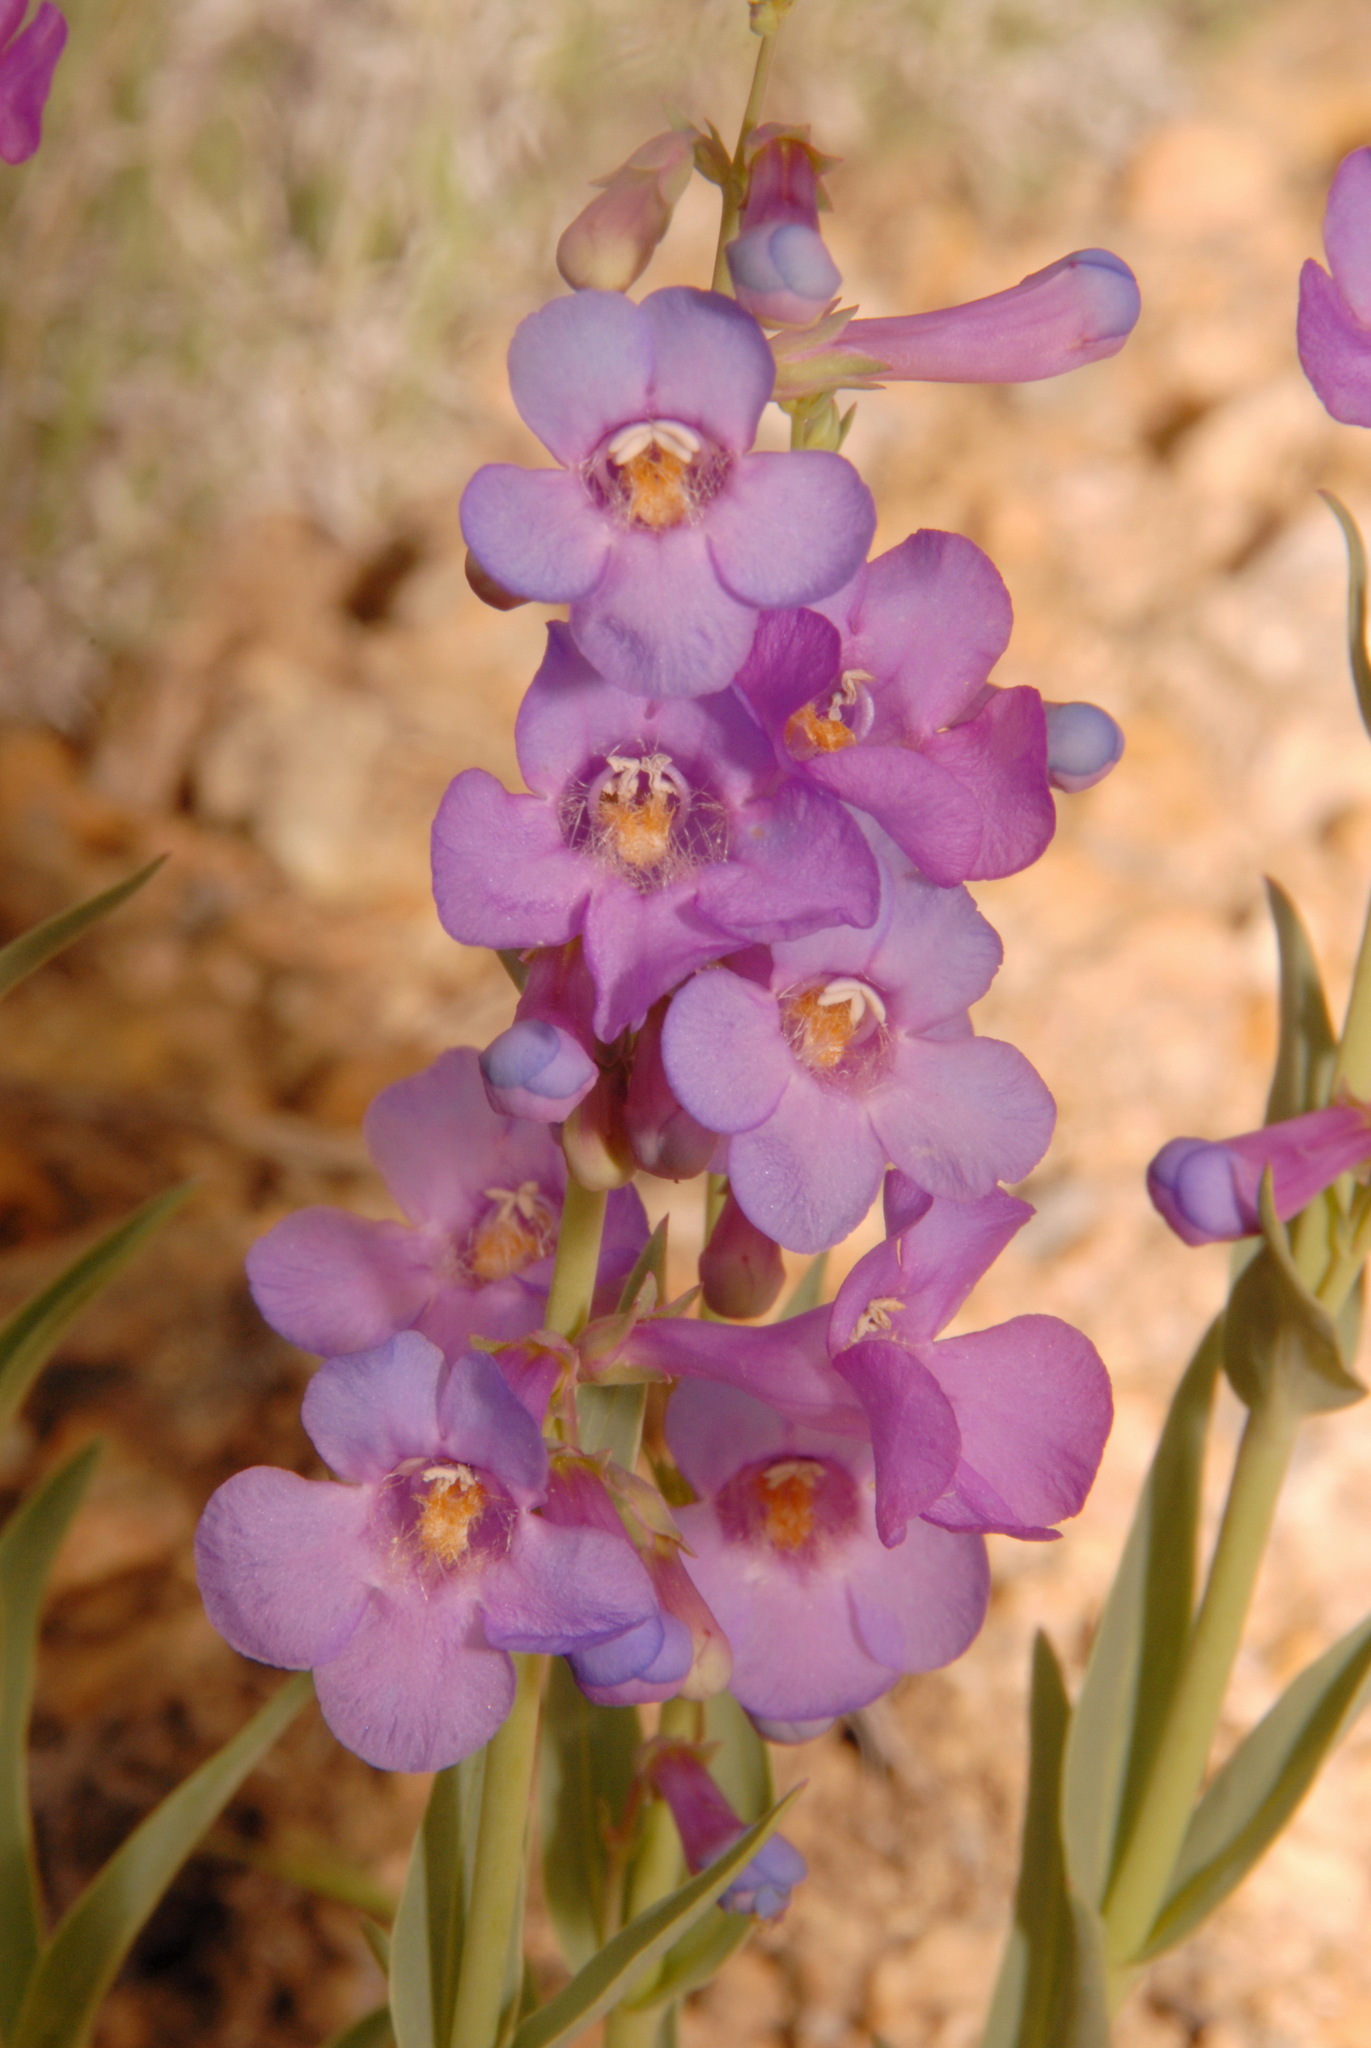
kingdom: Plantae
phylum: Tracheophyta
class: Magnoliopsida
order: Lamiales
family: Plantaginaceae
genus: Penstemon
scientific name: Penstemon secundiflorus
